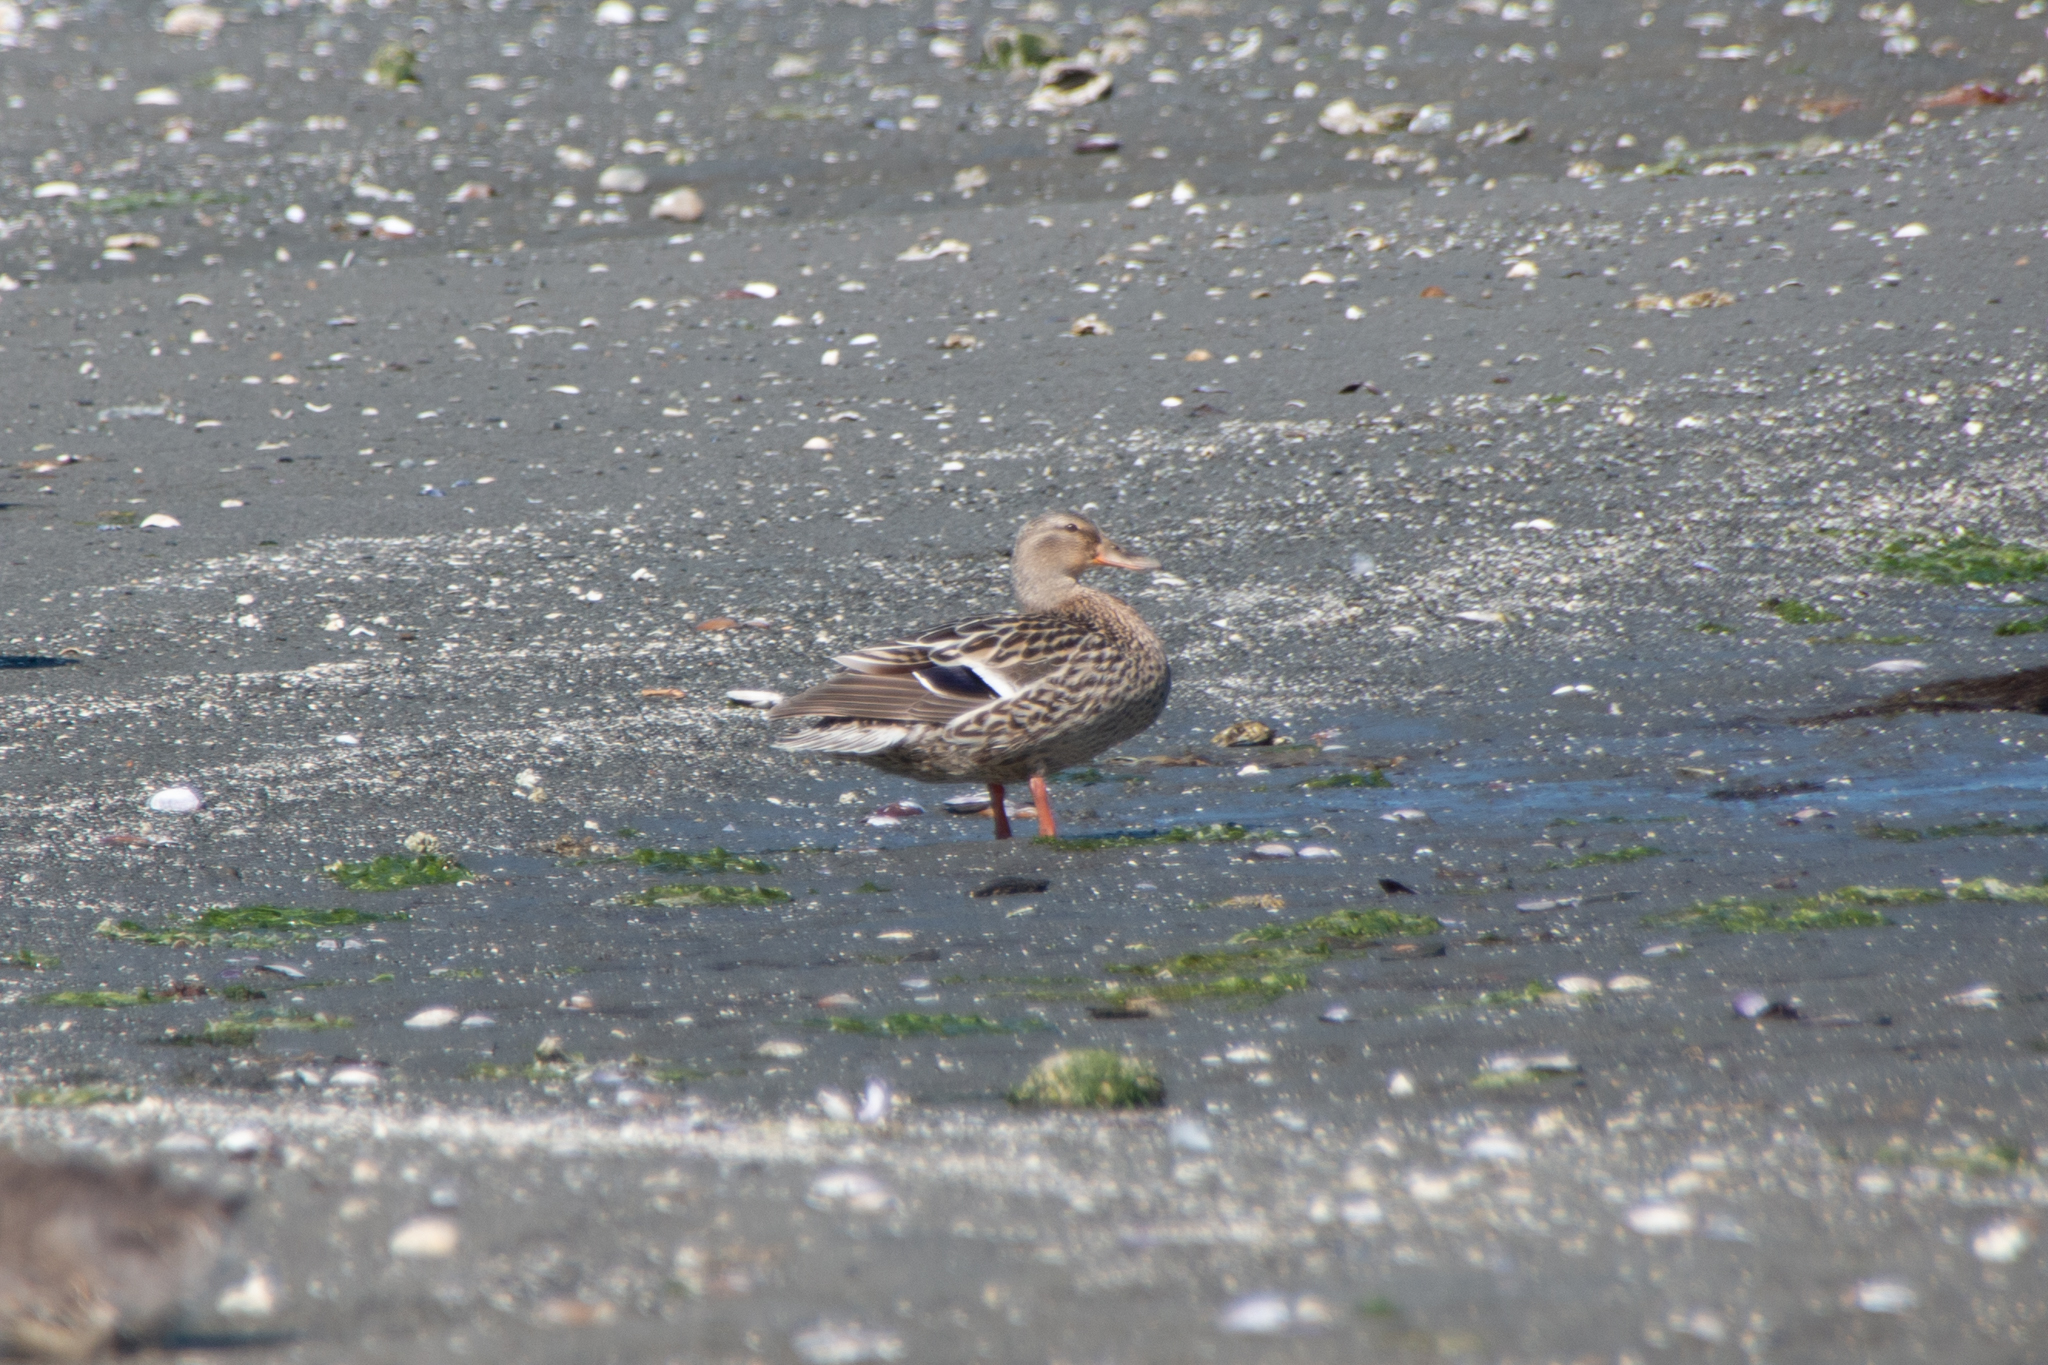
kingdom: Animalia
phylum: Chordata
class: Aves
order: Anseriformes
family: Anatidae
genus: Anas
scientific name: Anas platyrhynchos
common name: Mallard
